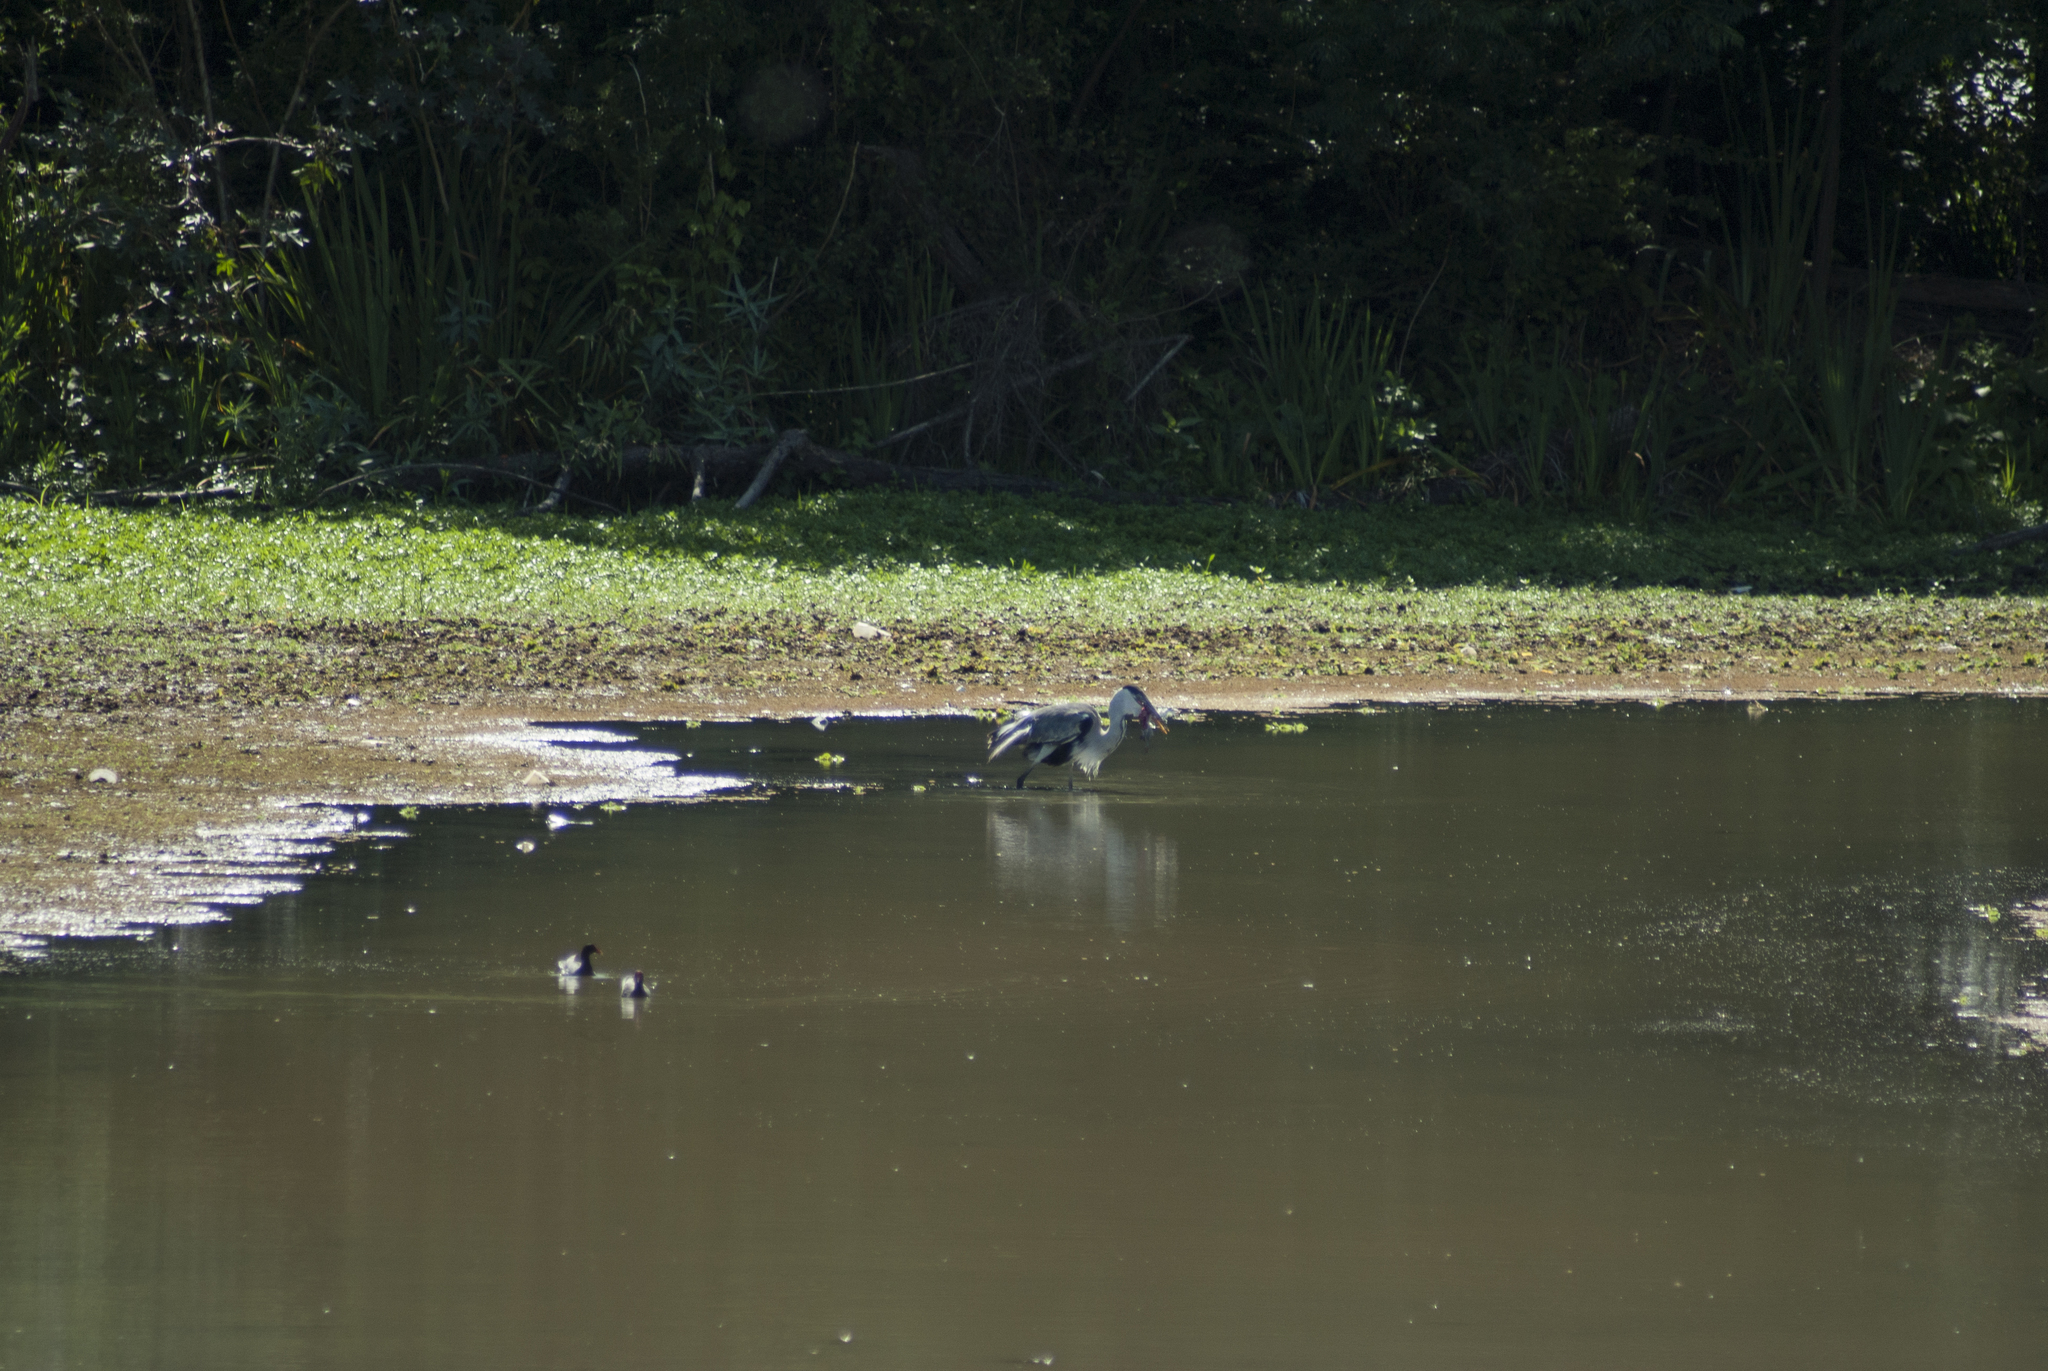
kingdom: Animalia
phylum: Chordata
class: Aves
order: Pelecaniformes
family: Ardeidae
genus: Ardea
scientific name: Ardea cocoi
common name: Cocoi heron
